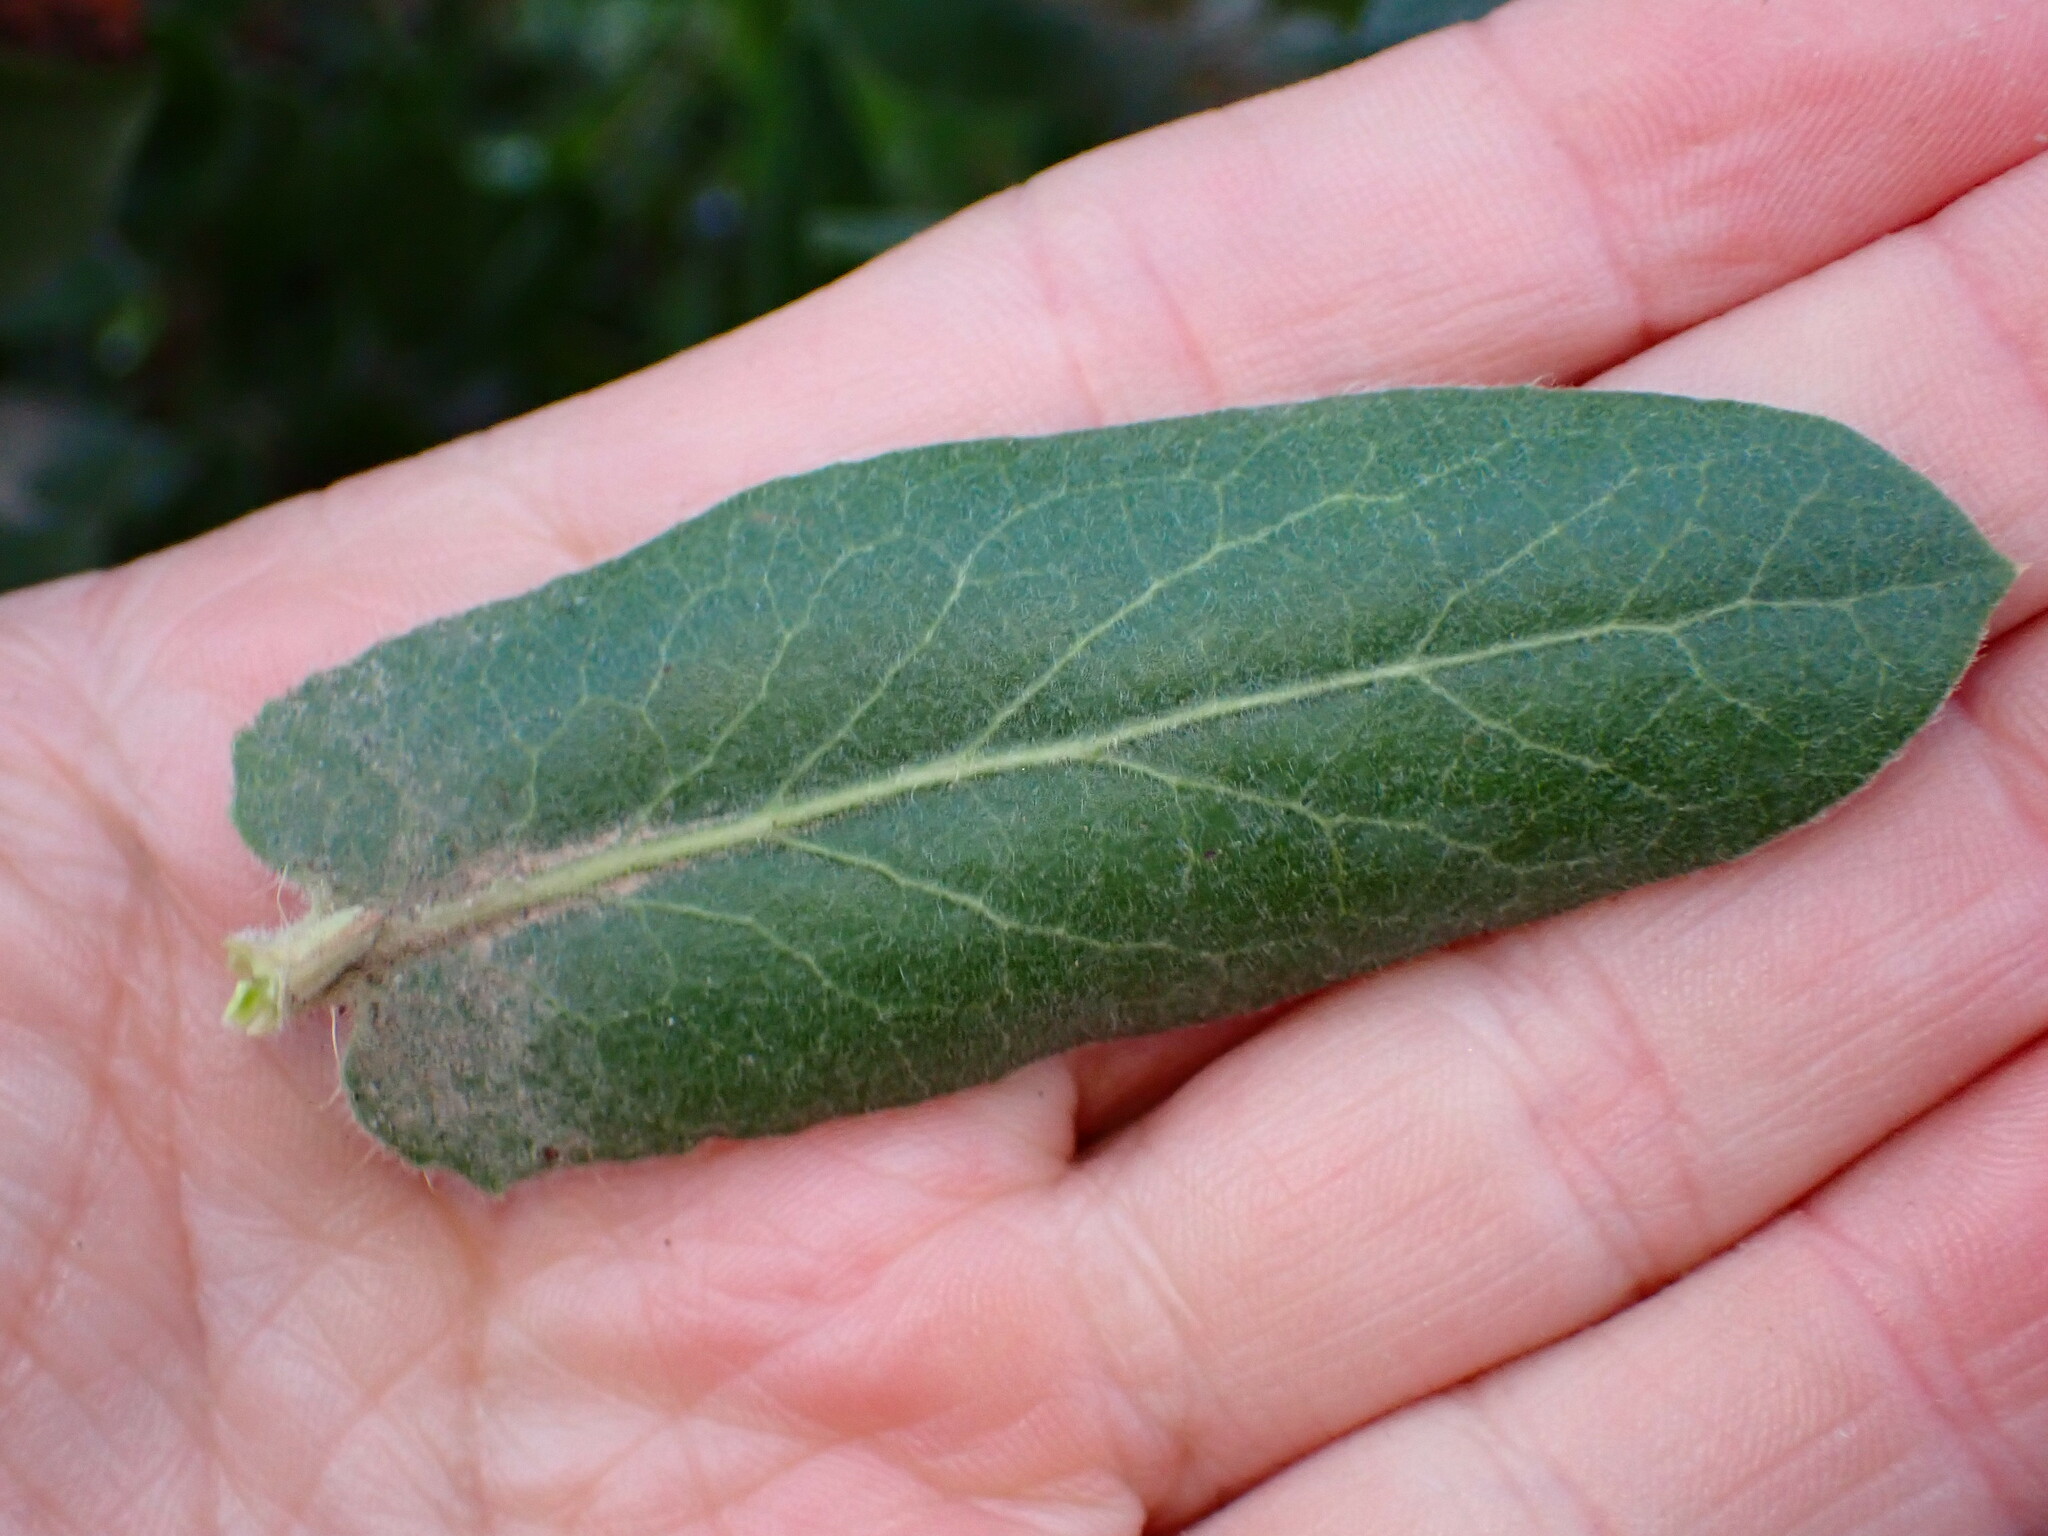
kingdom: Plantae
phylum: Tracheophyta
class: Magnoliopsida
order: Ericales
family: Ericaceae
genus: Arctostaphylos
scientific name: Arctostaphylos regismontana
